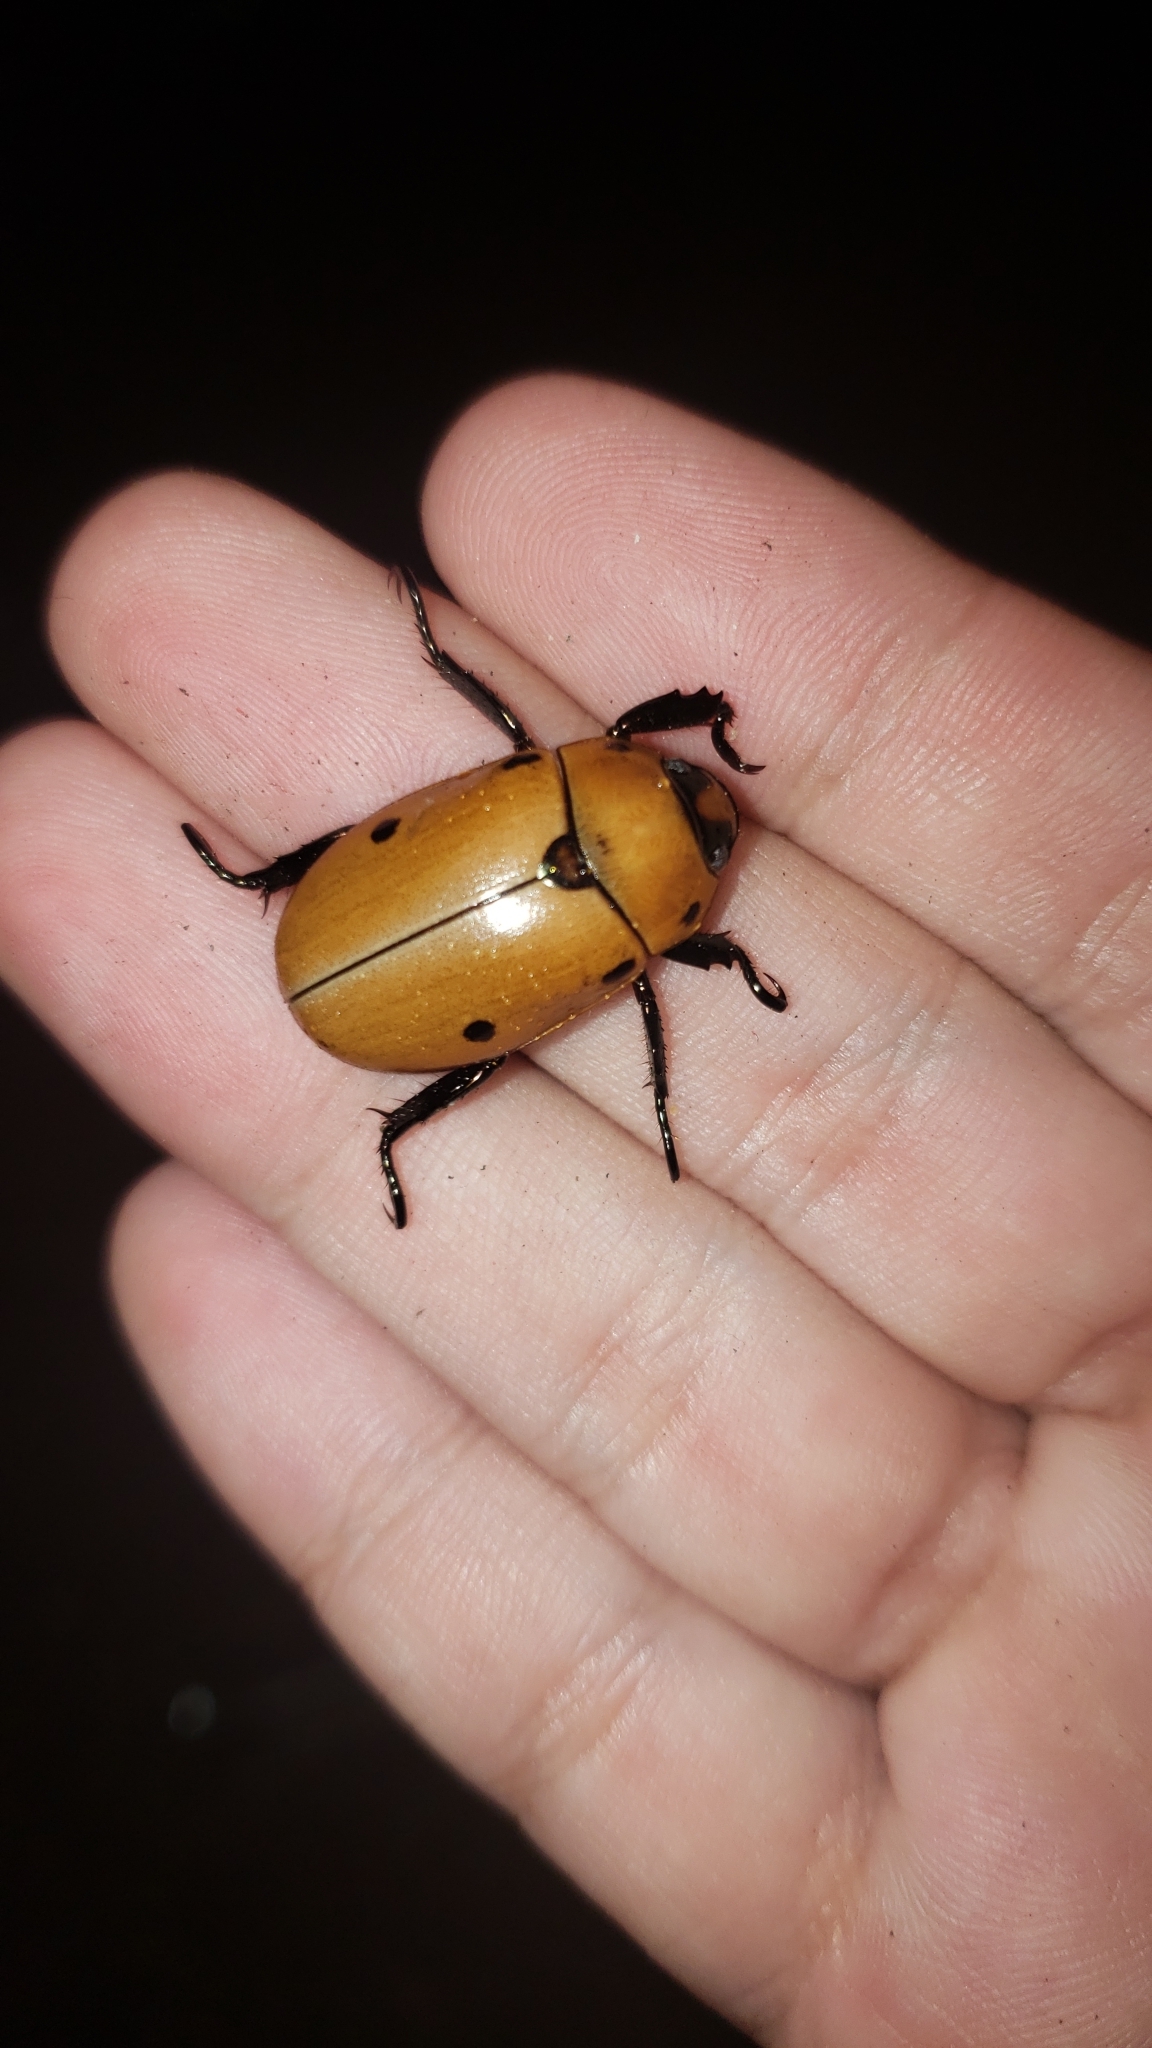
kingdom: Animalia
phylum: Arthropoda
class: Insecta
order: Coleoptera
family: Scarabaeidae
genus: Pelidnota
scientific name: Pelidnota punctata
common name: Grapevine beetle
